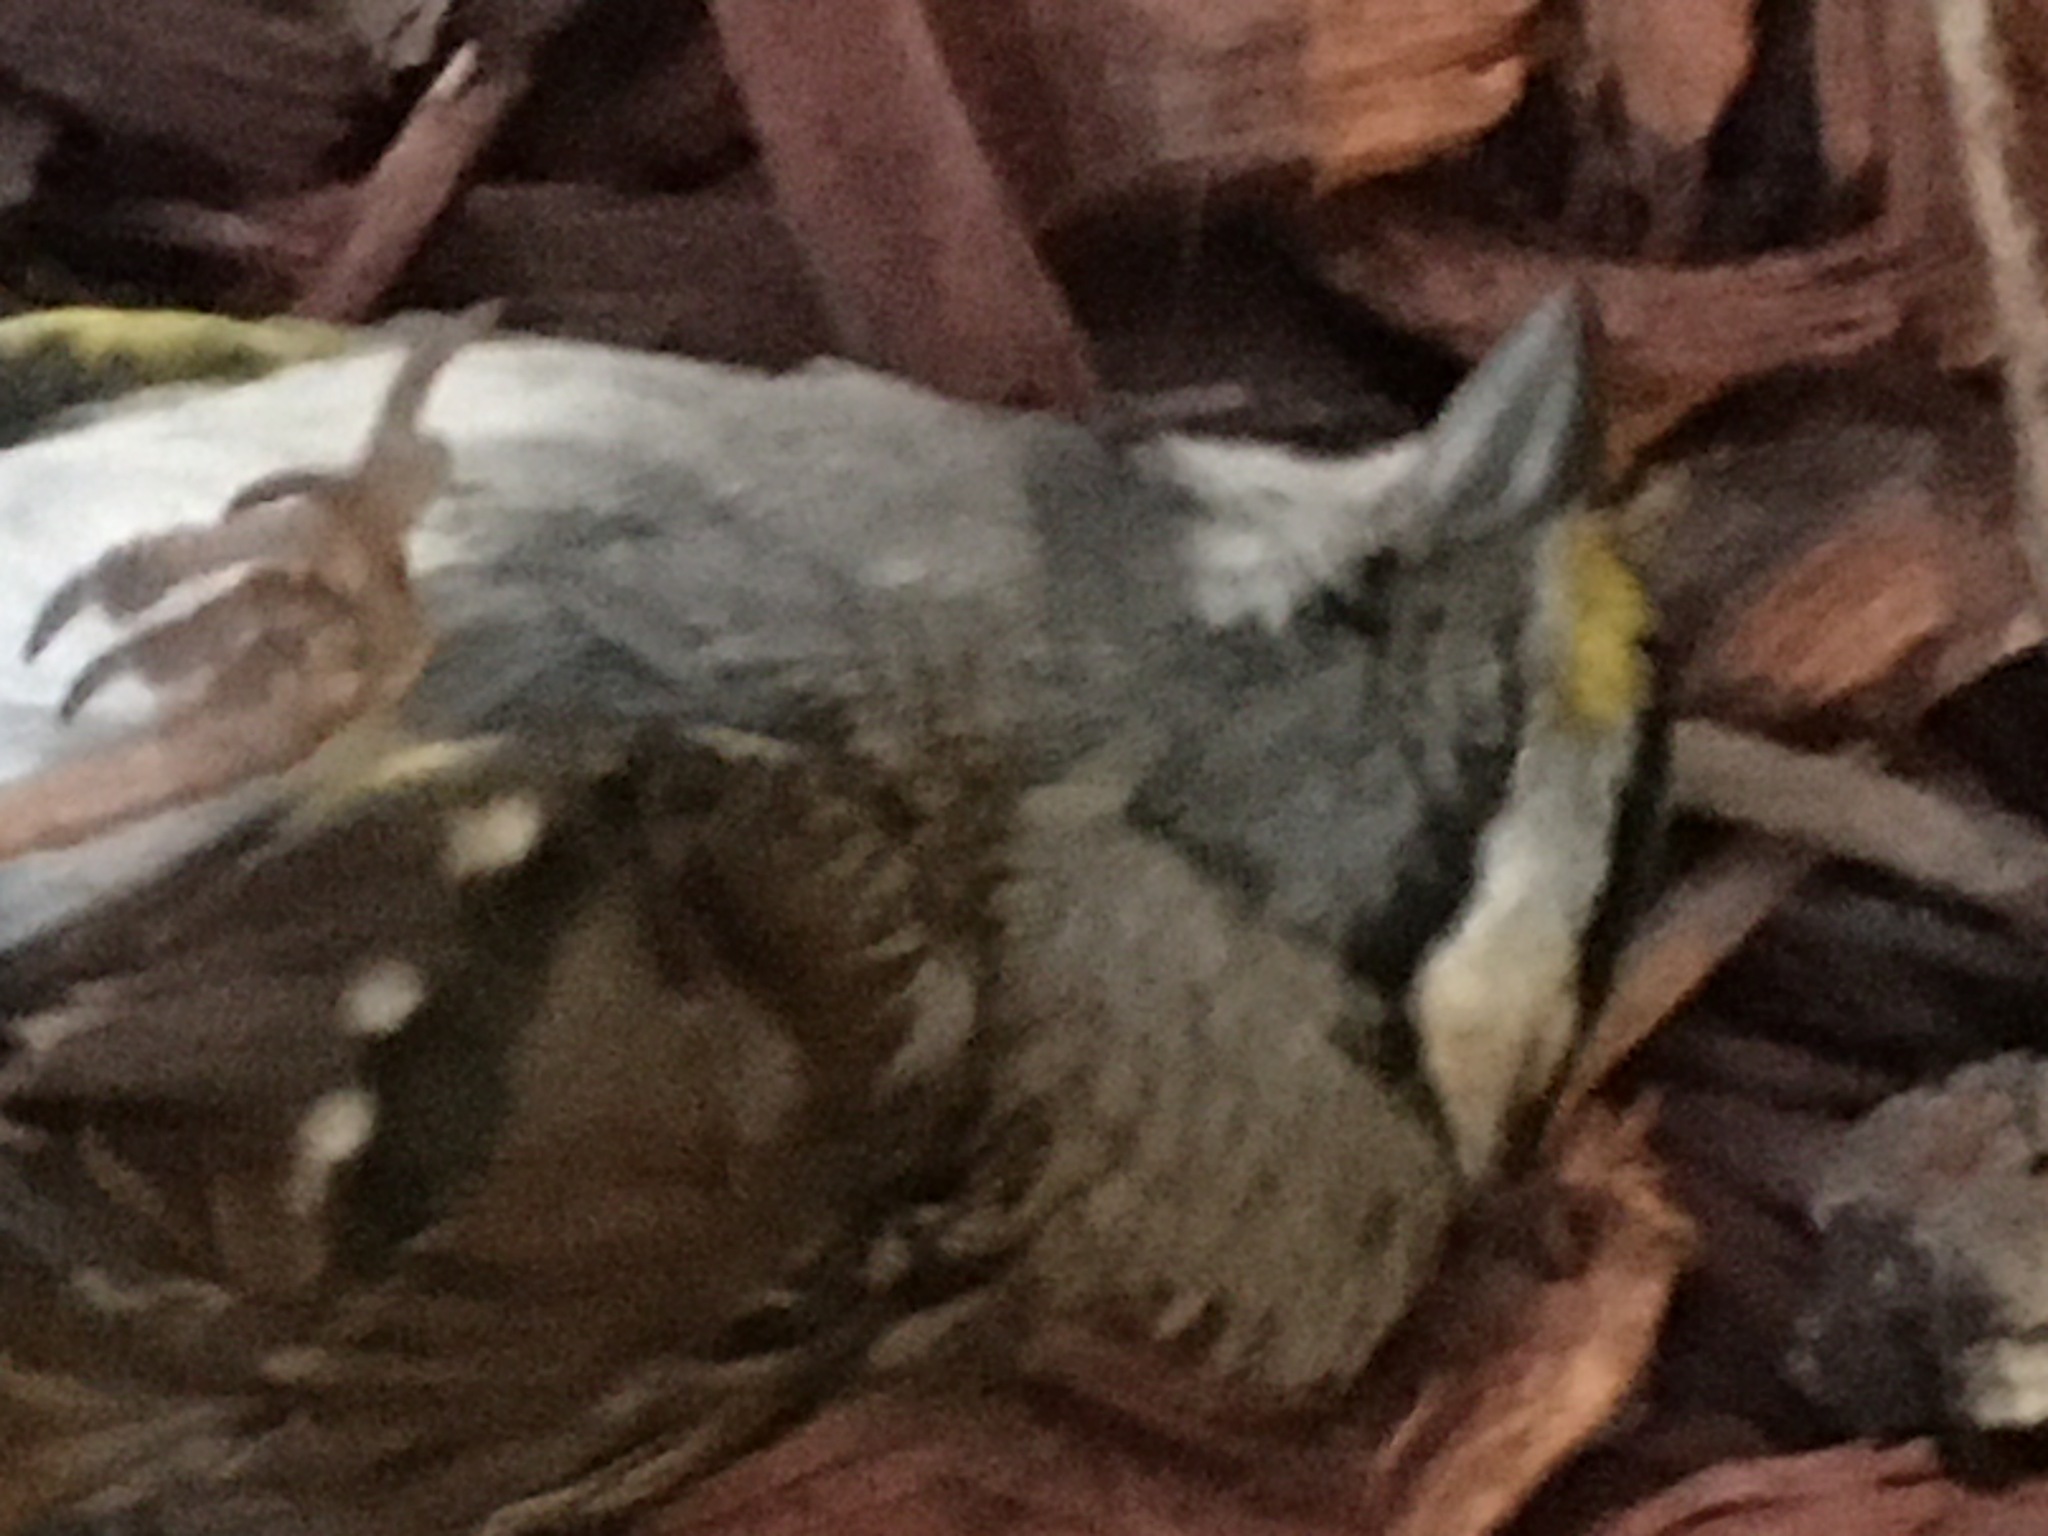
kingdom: Animalia
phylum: Chordata
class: Aves
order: Passeriformes
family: Passerellidae
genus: Zonotrichia
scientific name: Zonotrichia albicollis
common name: White-throated sparrow
